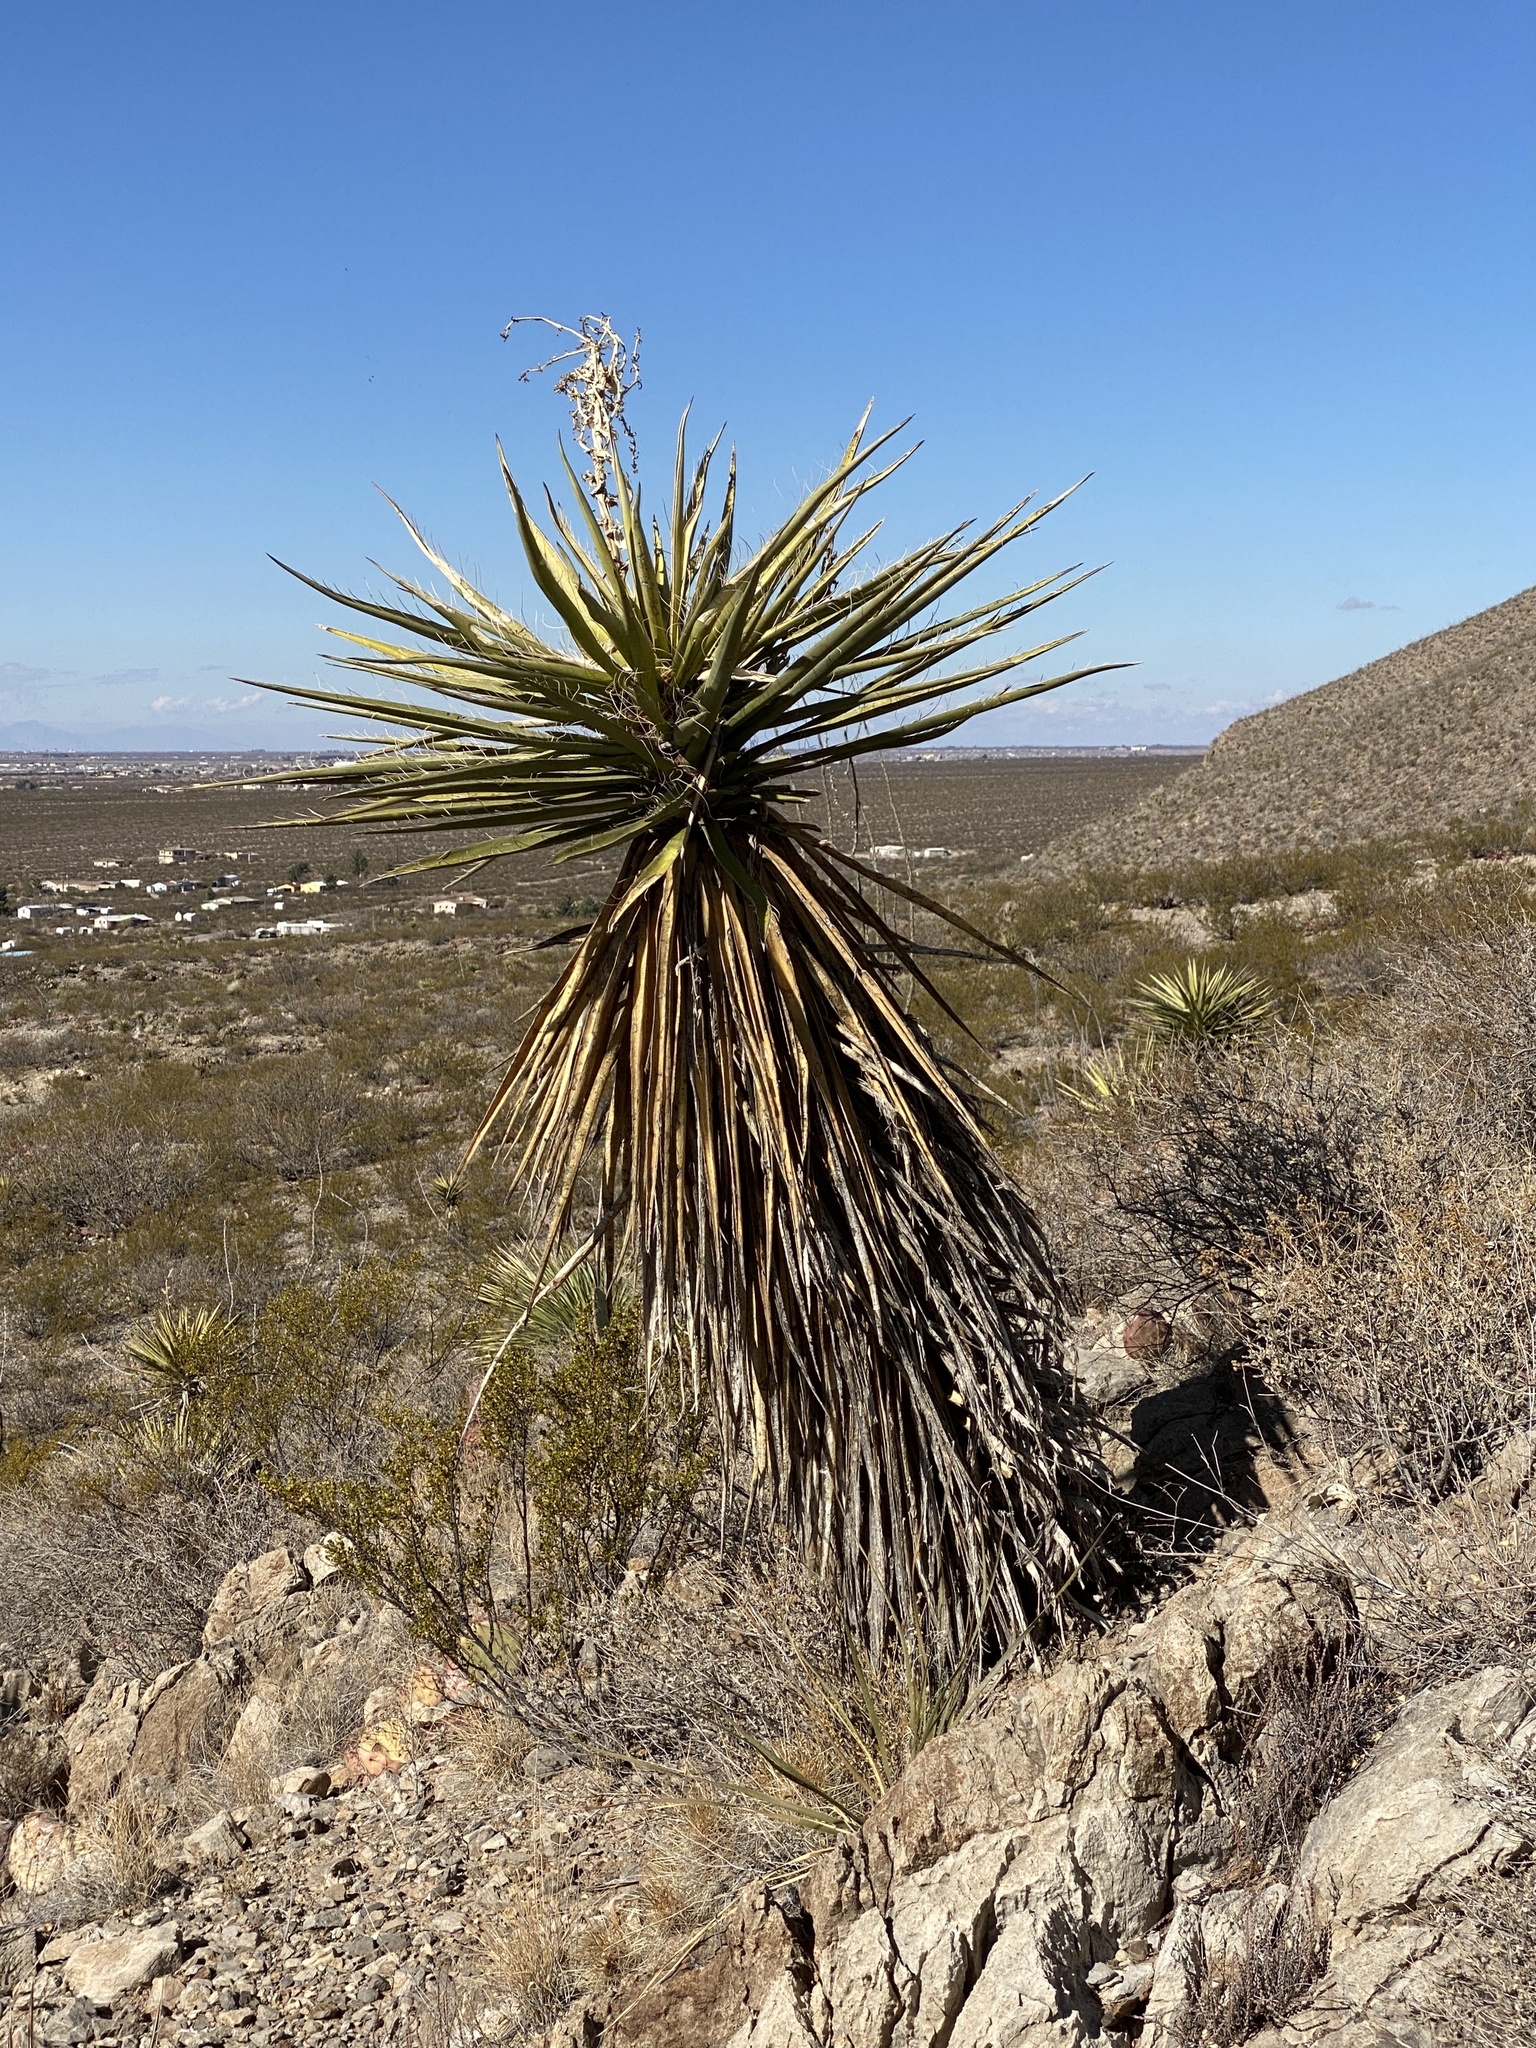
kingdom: Plantae
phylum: Tracheophyta
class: Liliopsida
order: Asparagales
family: Asparagaceae
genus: Yucca
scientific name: Yucca treculiana
